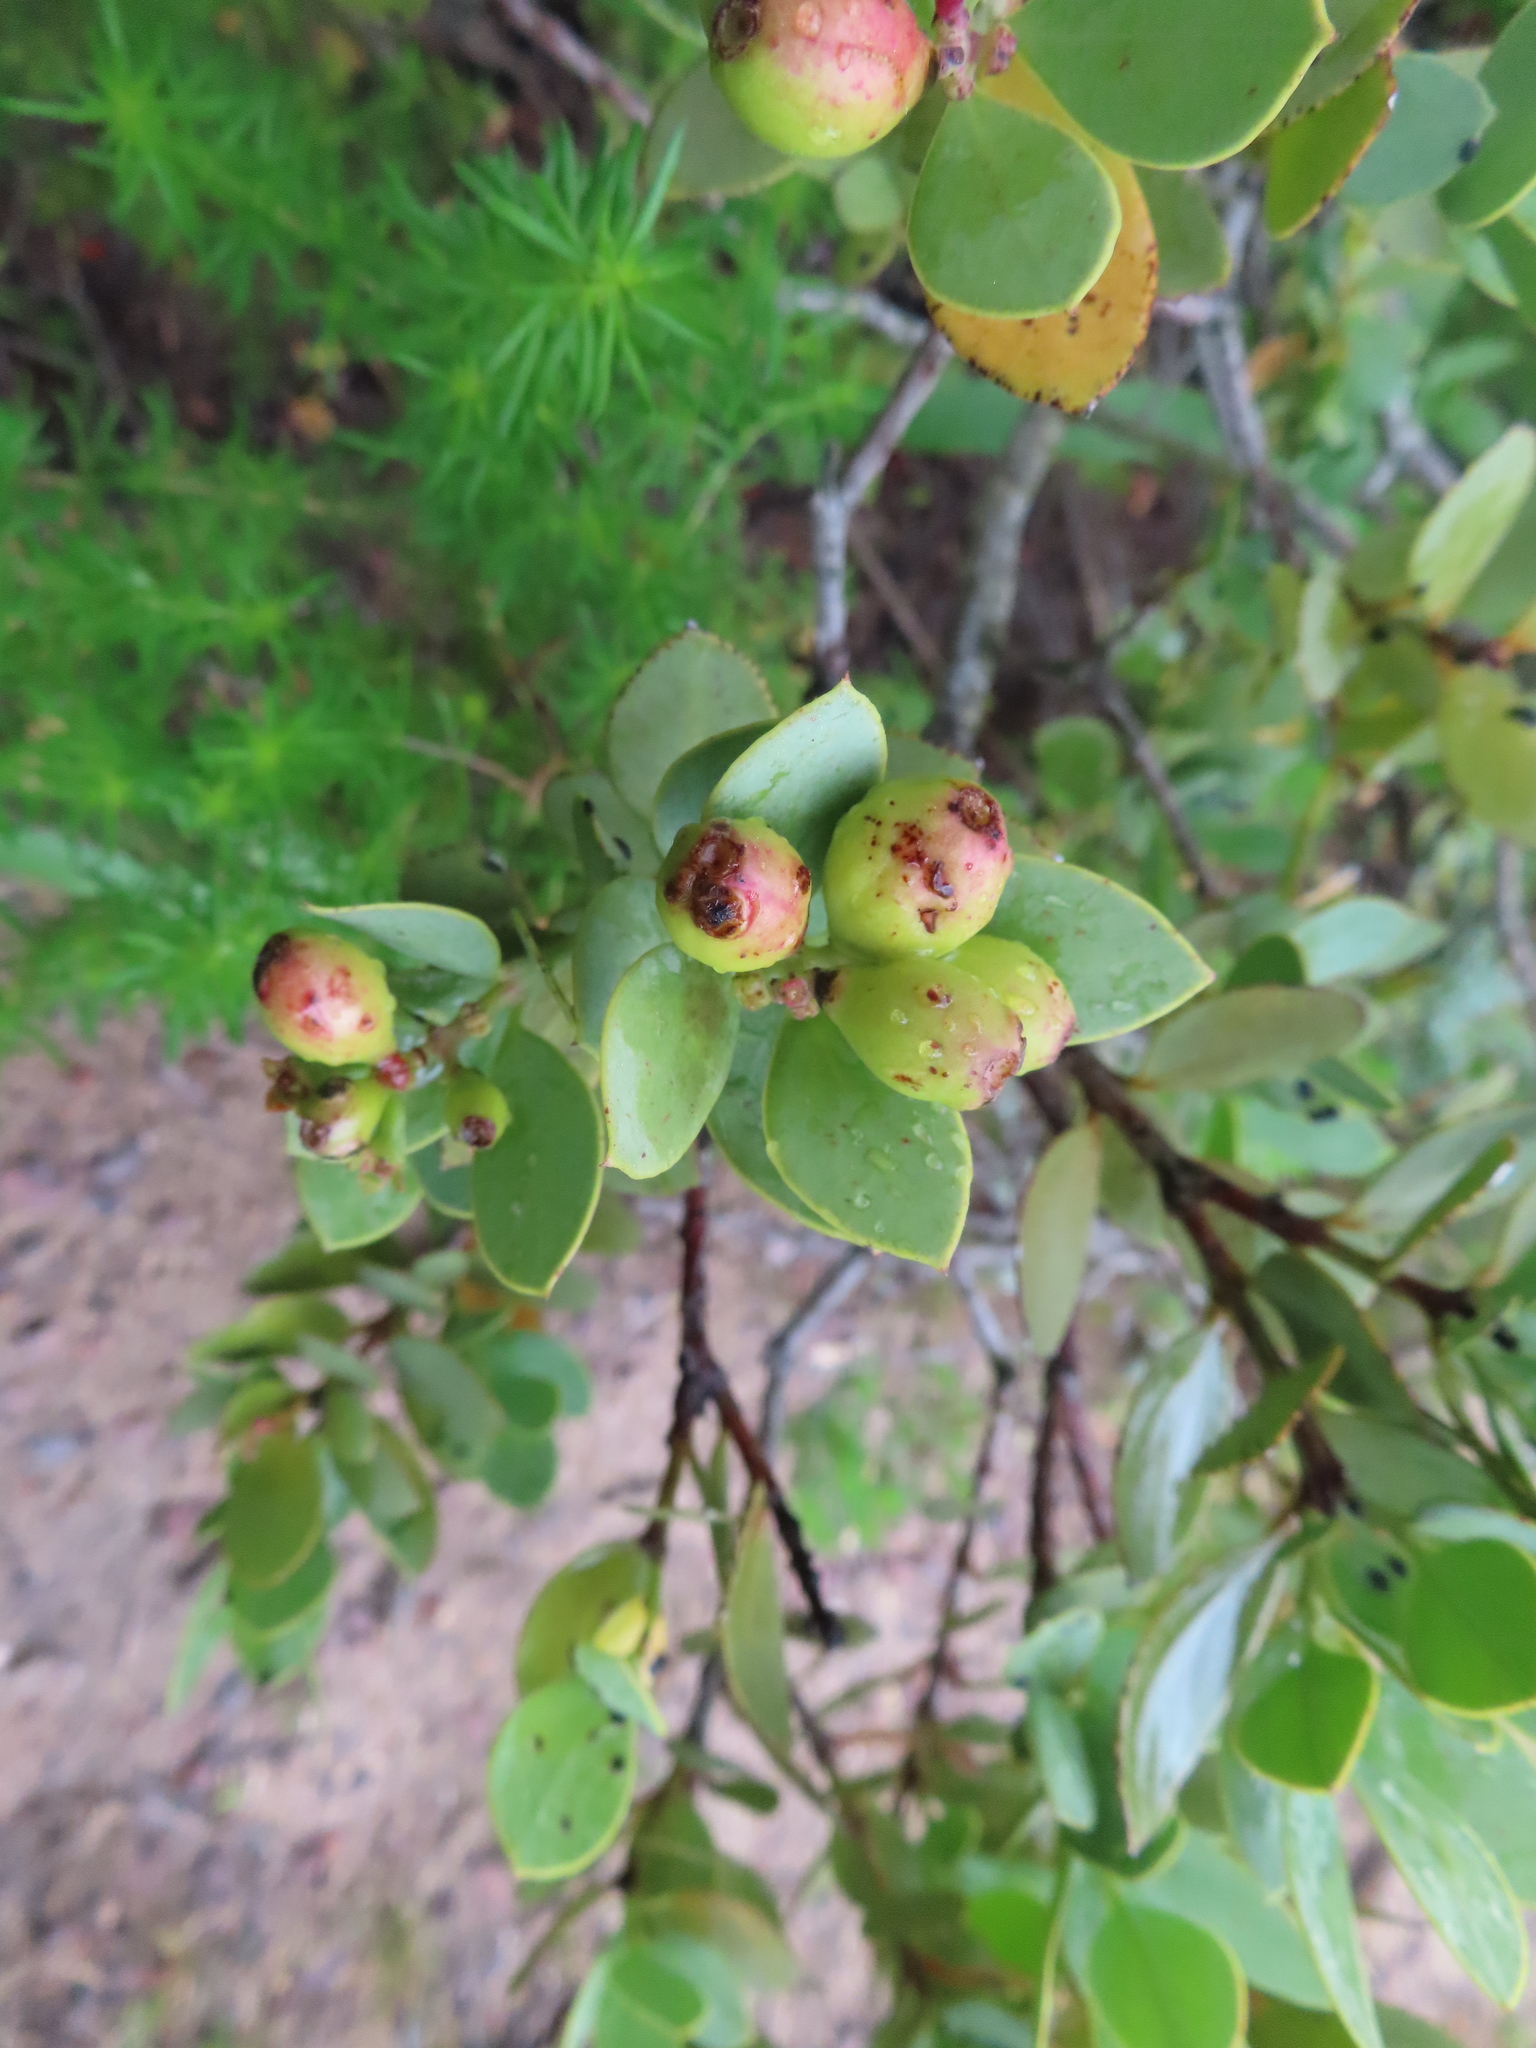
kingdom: Plantae
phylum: Tracheophyta
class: Magnoliopsida
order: Santalales
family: Santalaceae
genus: Osyris
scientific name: Osyris compressa
